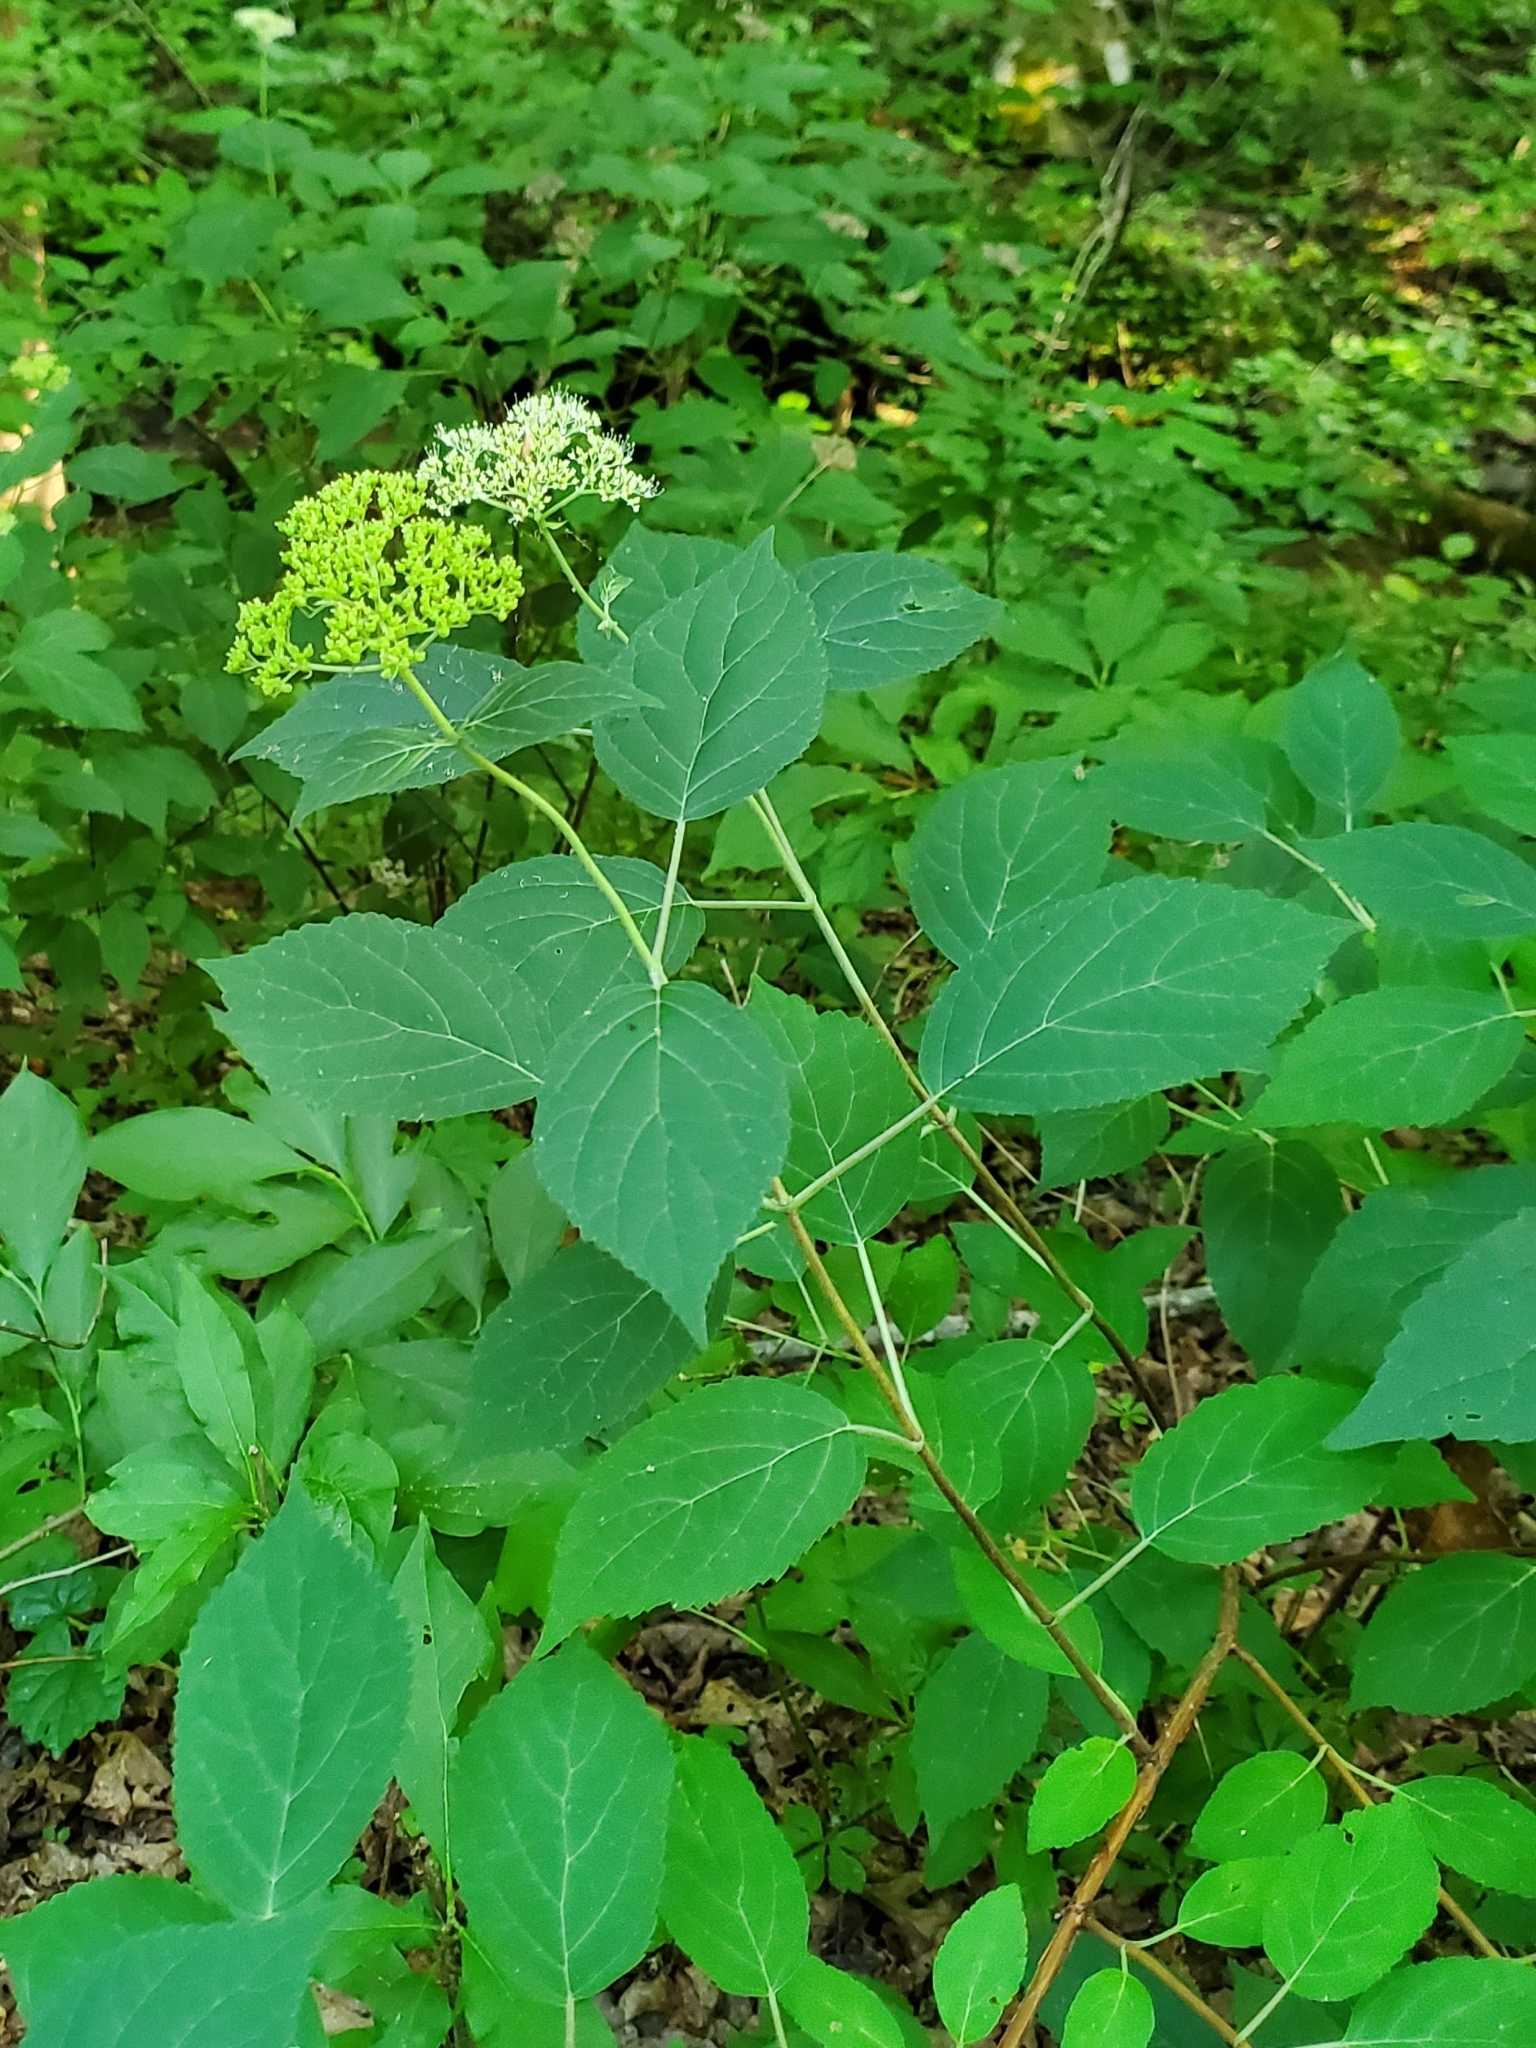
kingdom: Plantae
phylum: Tracheophyta
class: Magnoliopsida
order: Cornales
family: Hydrangeaceae
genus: Hydrangea
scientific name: Hydrangea arborescens
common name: Sevenbark
